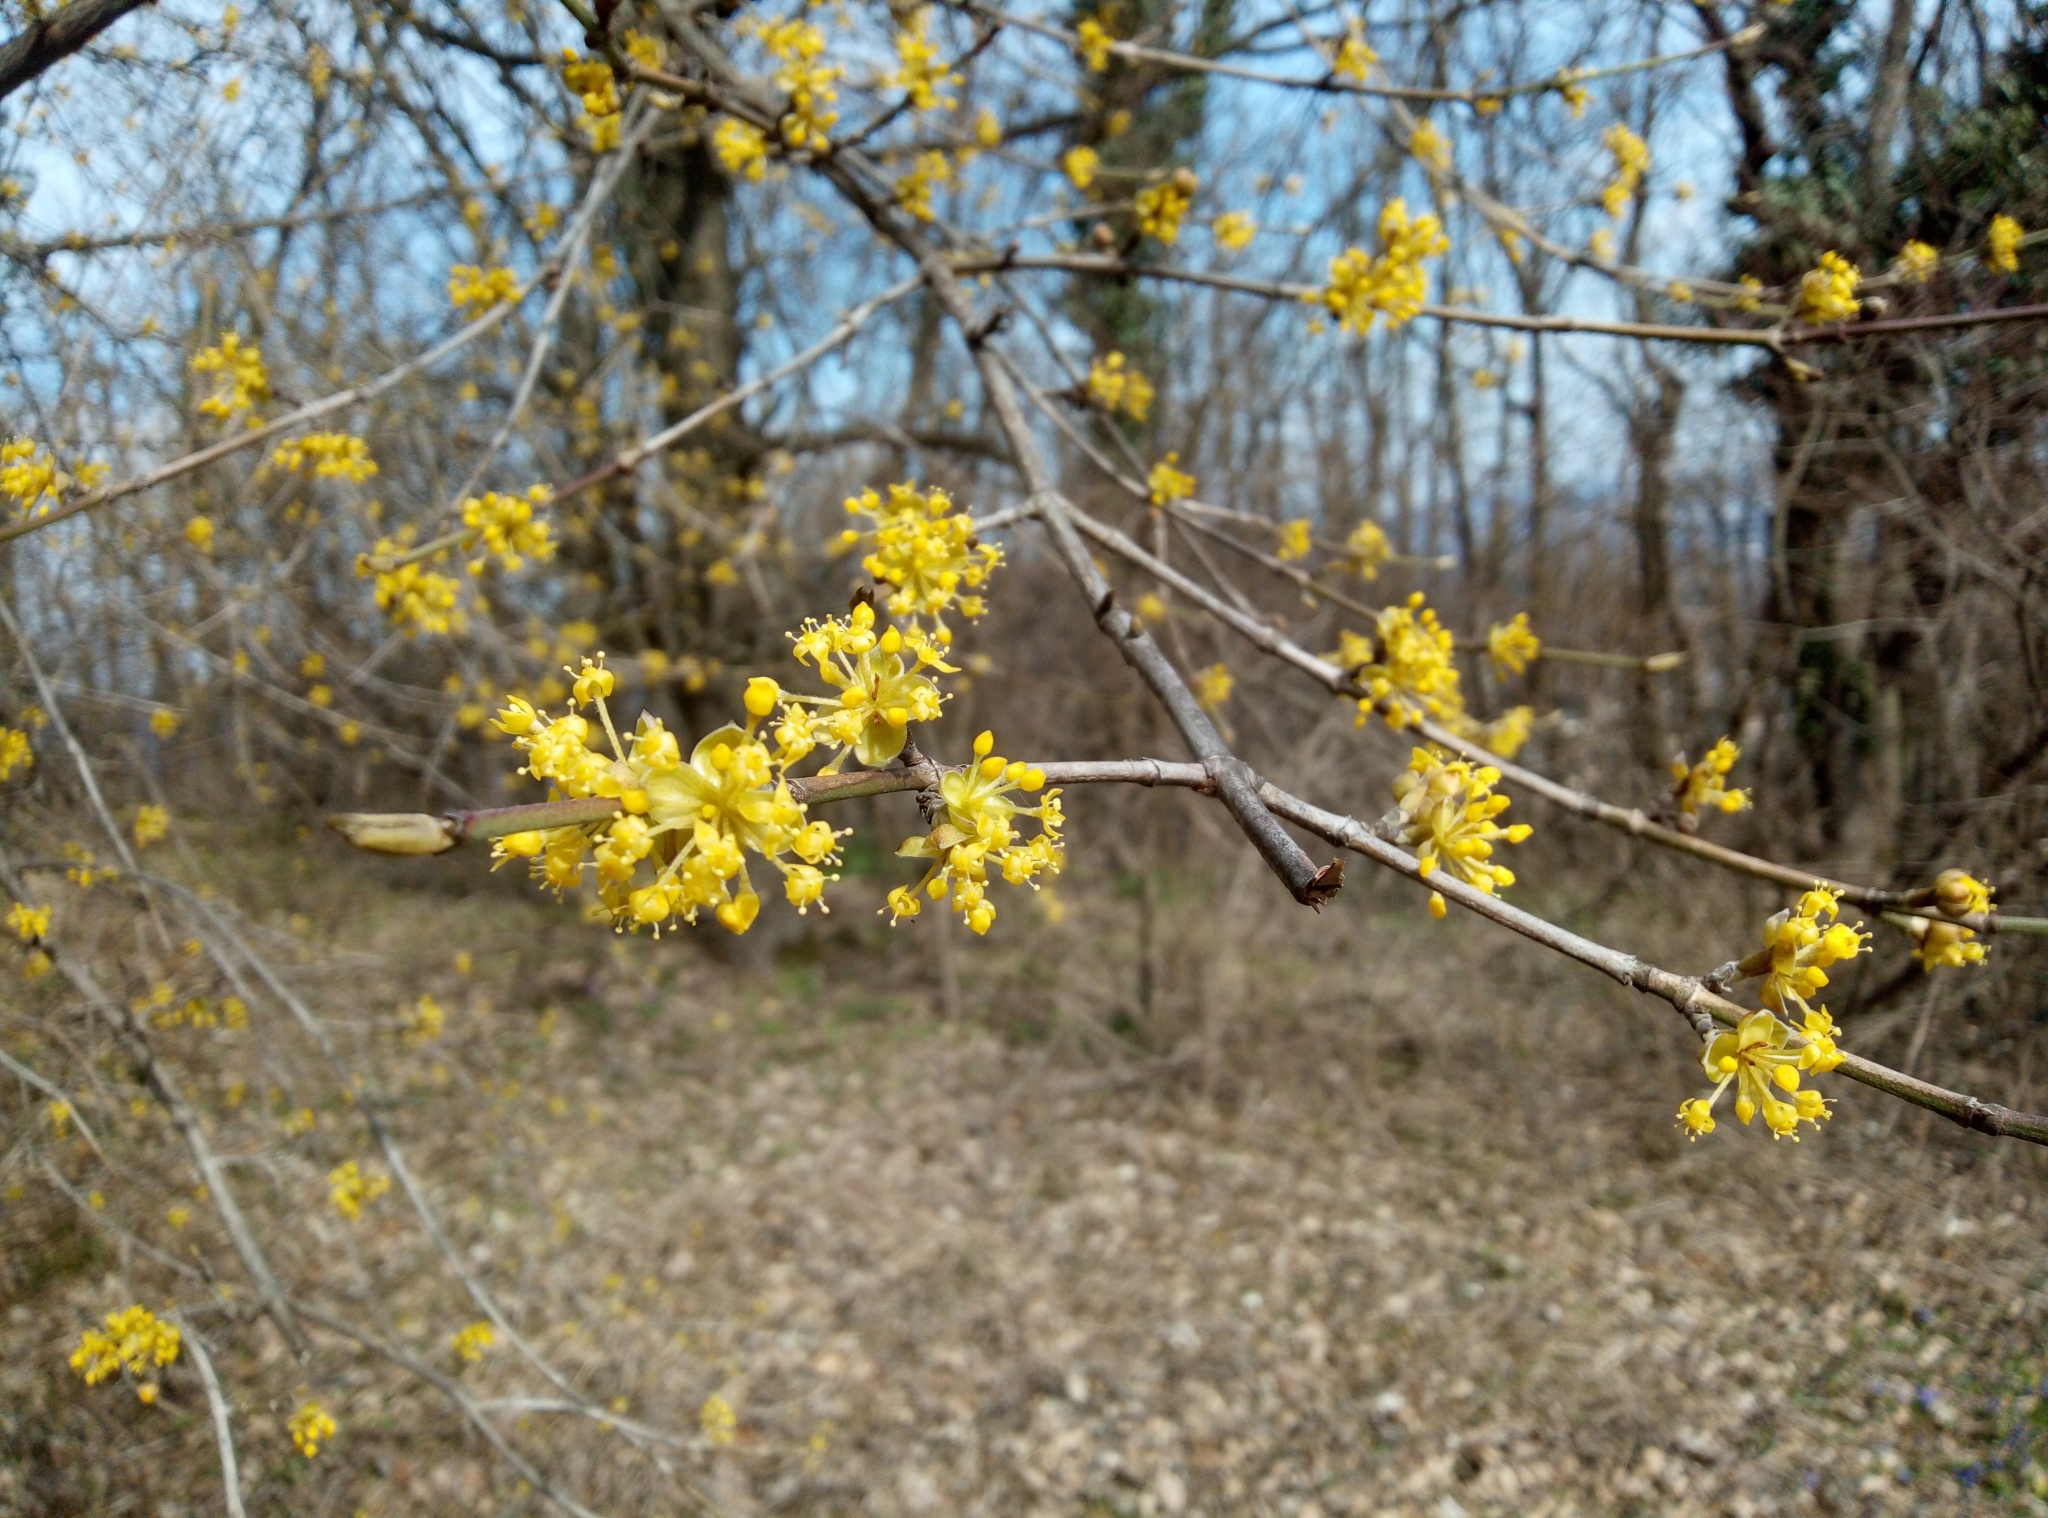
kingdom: Plantae
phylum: Tracheophyta
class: Magnoliopsida
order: Cornales
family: Cornaceae
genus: Cornus
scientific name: Cornus mas
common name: Cornelian-cherry
